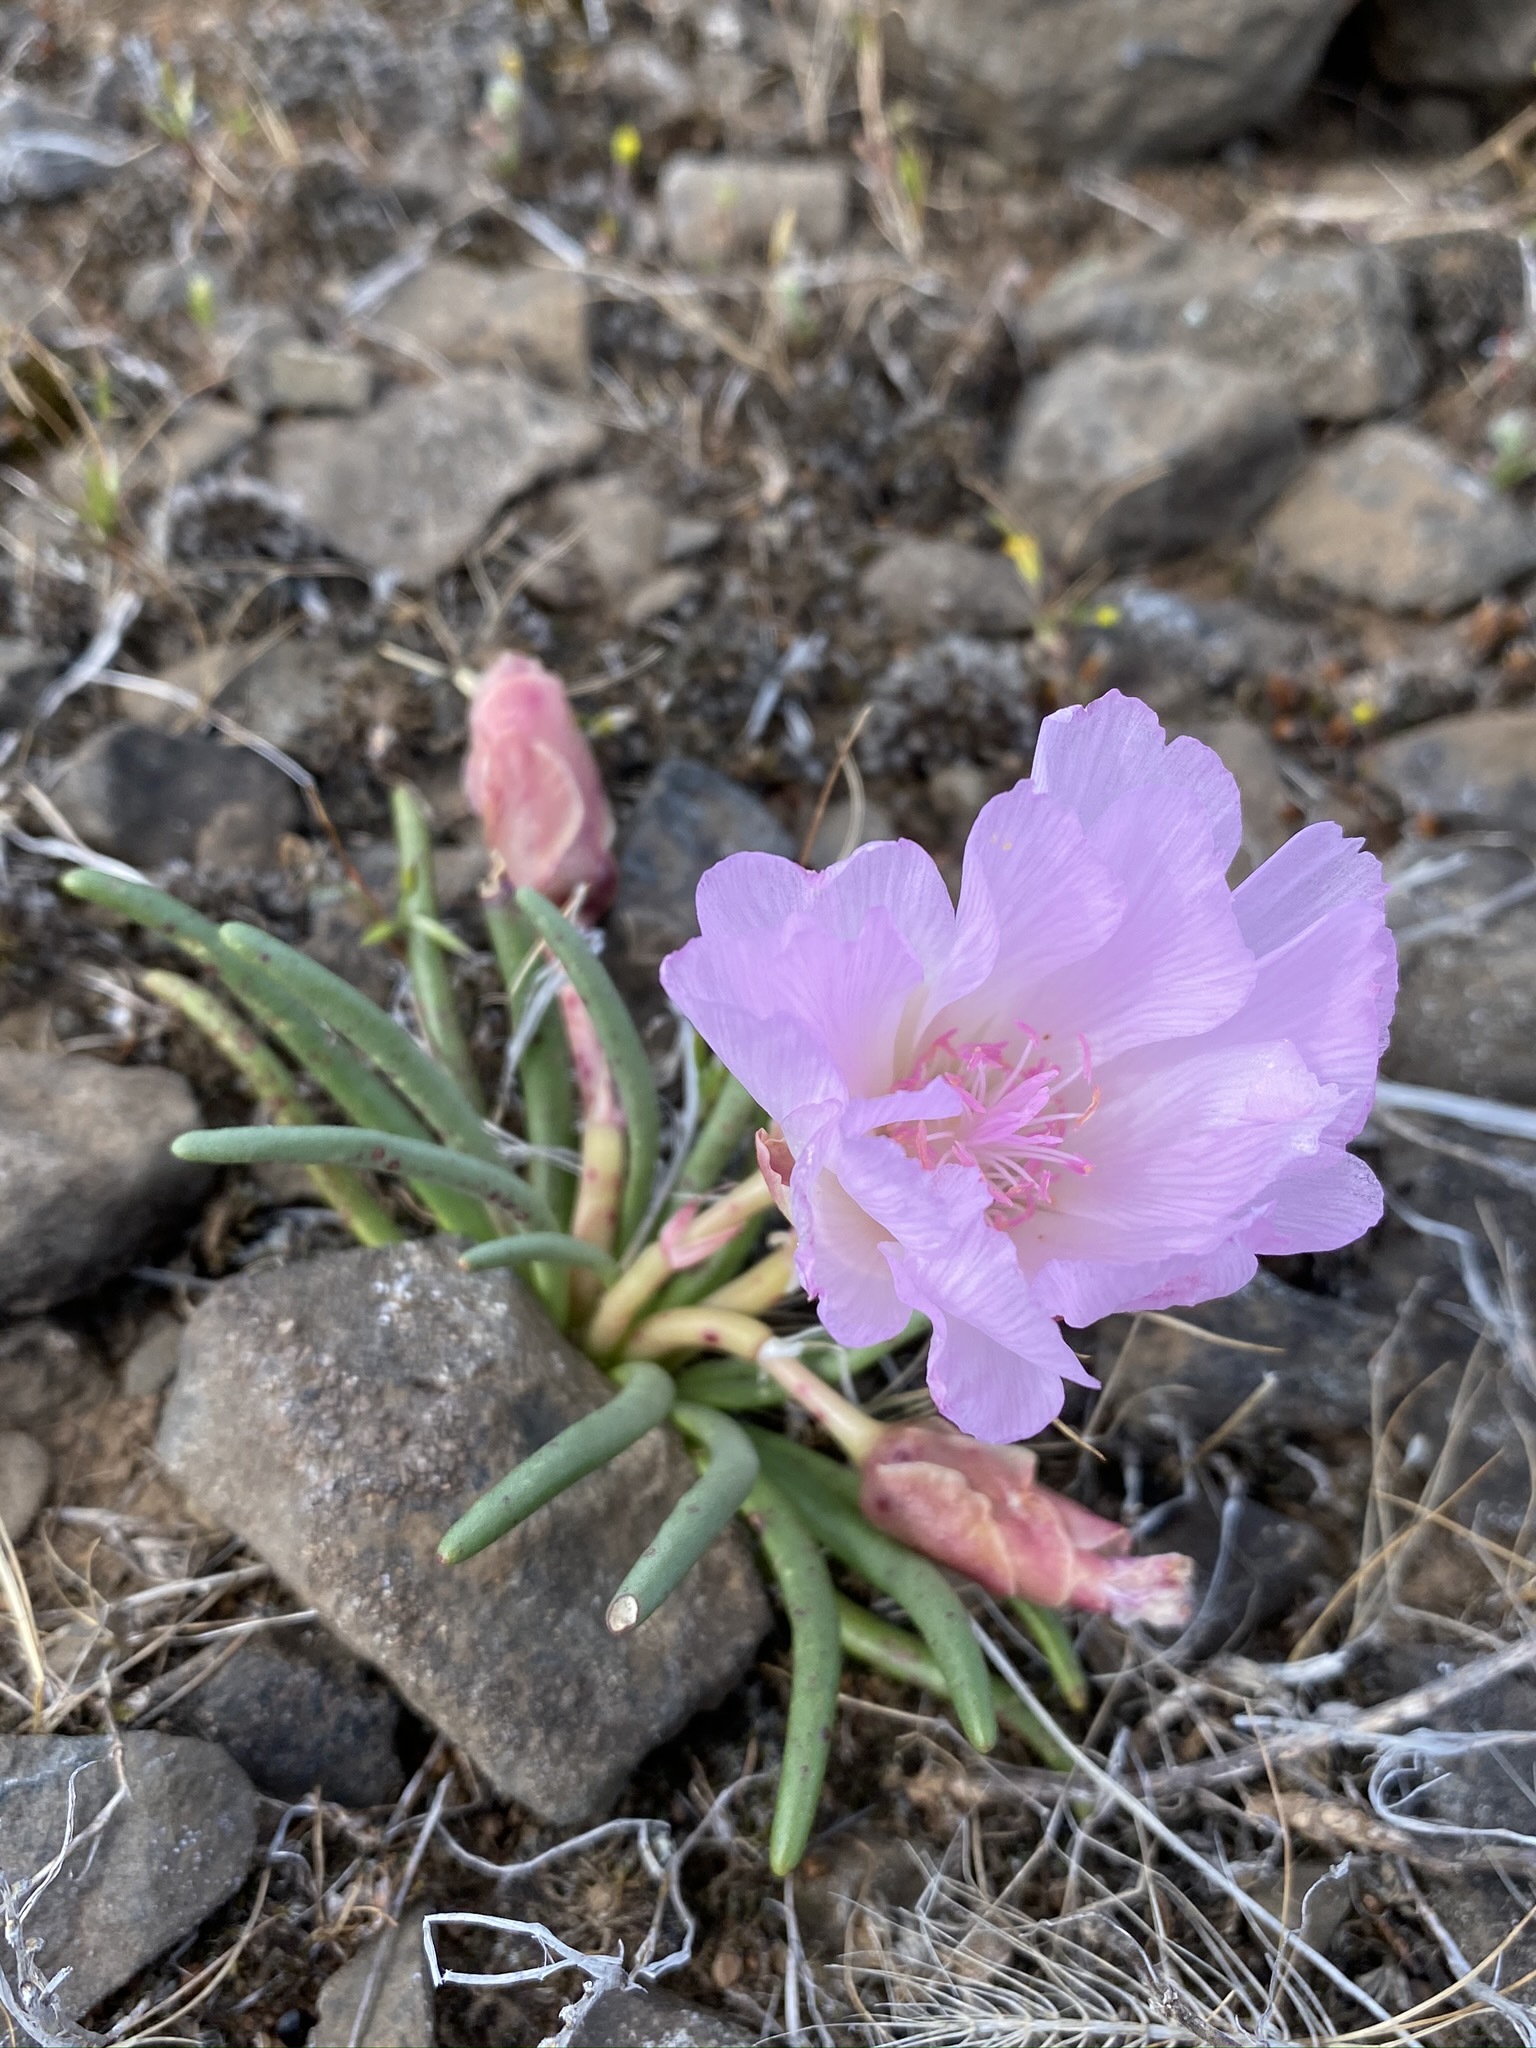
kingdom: Plantae
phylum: Tracheophyta
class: Magnoliopsida
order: Caryophyllales
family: Montiaceae
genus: Lewisia
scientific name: Lewisia rediviva
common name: Bitter-root
